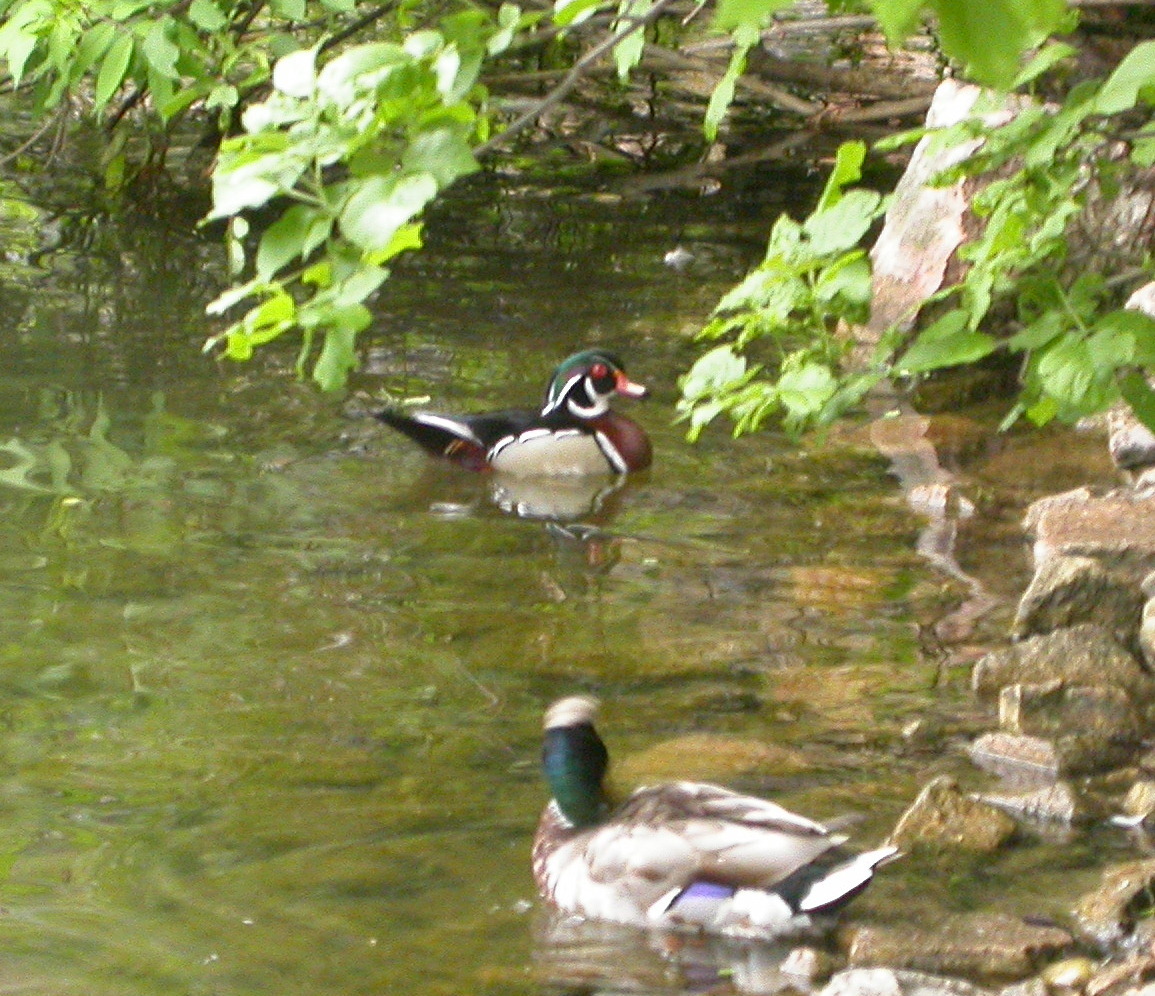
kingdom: Animalia
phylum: Chordata
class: Aves
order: Anseriformes
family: Anatidae
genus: Aix
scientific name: Aix sponsa
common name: Wood duck
